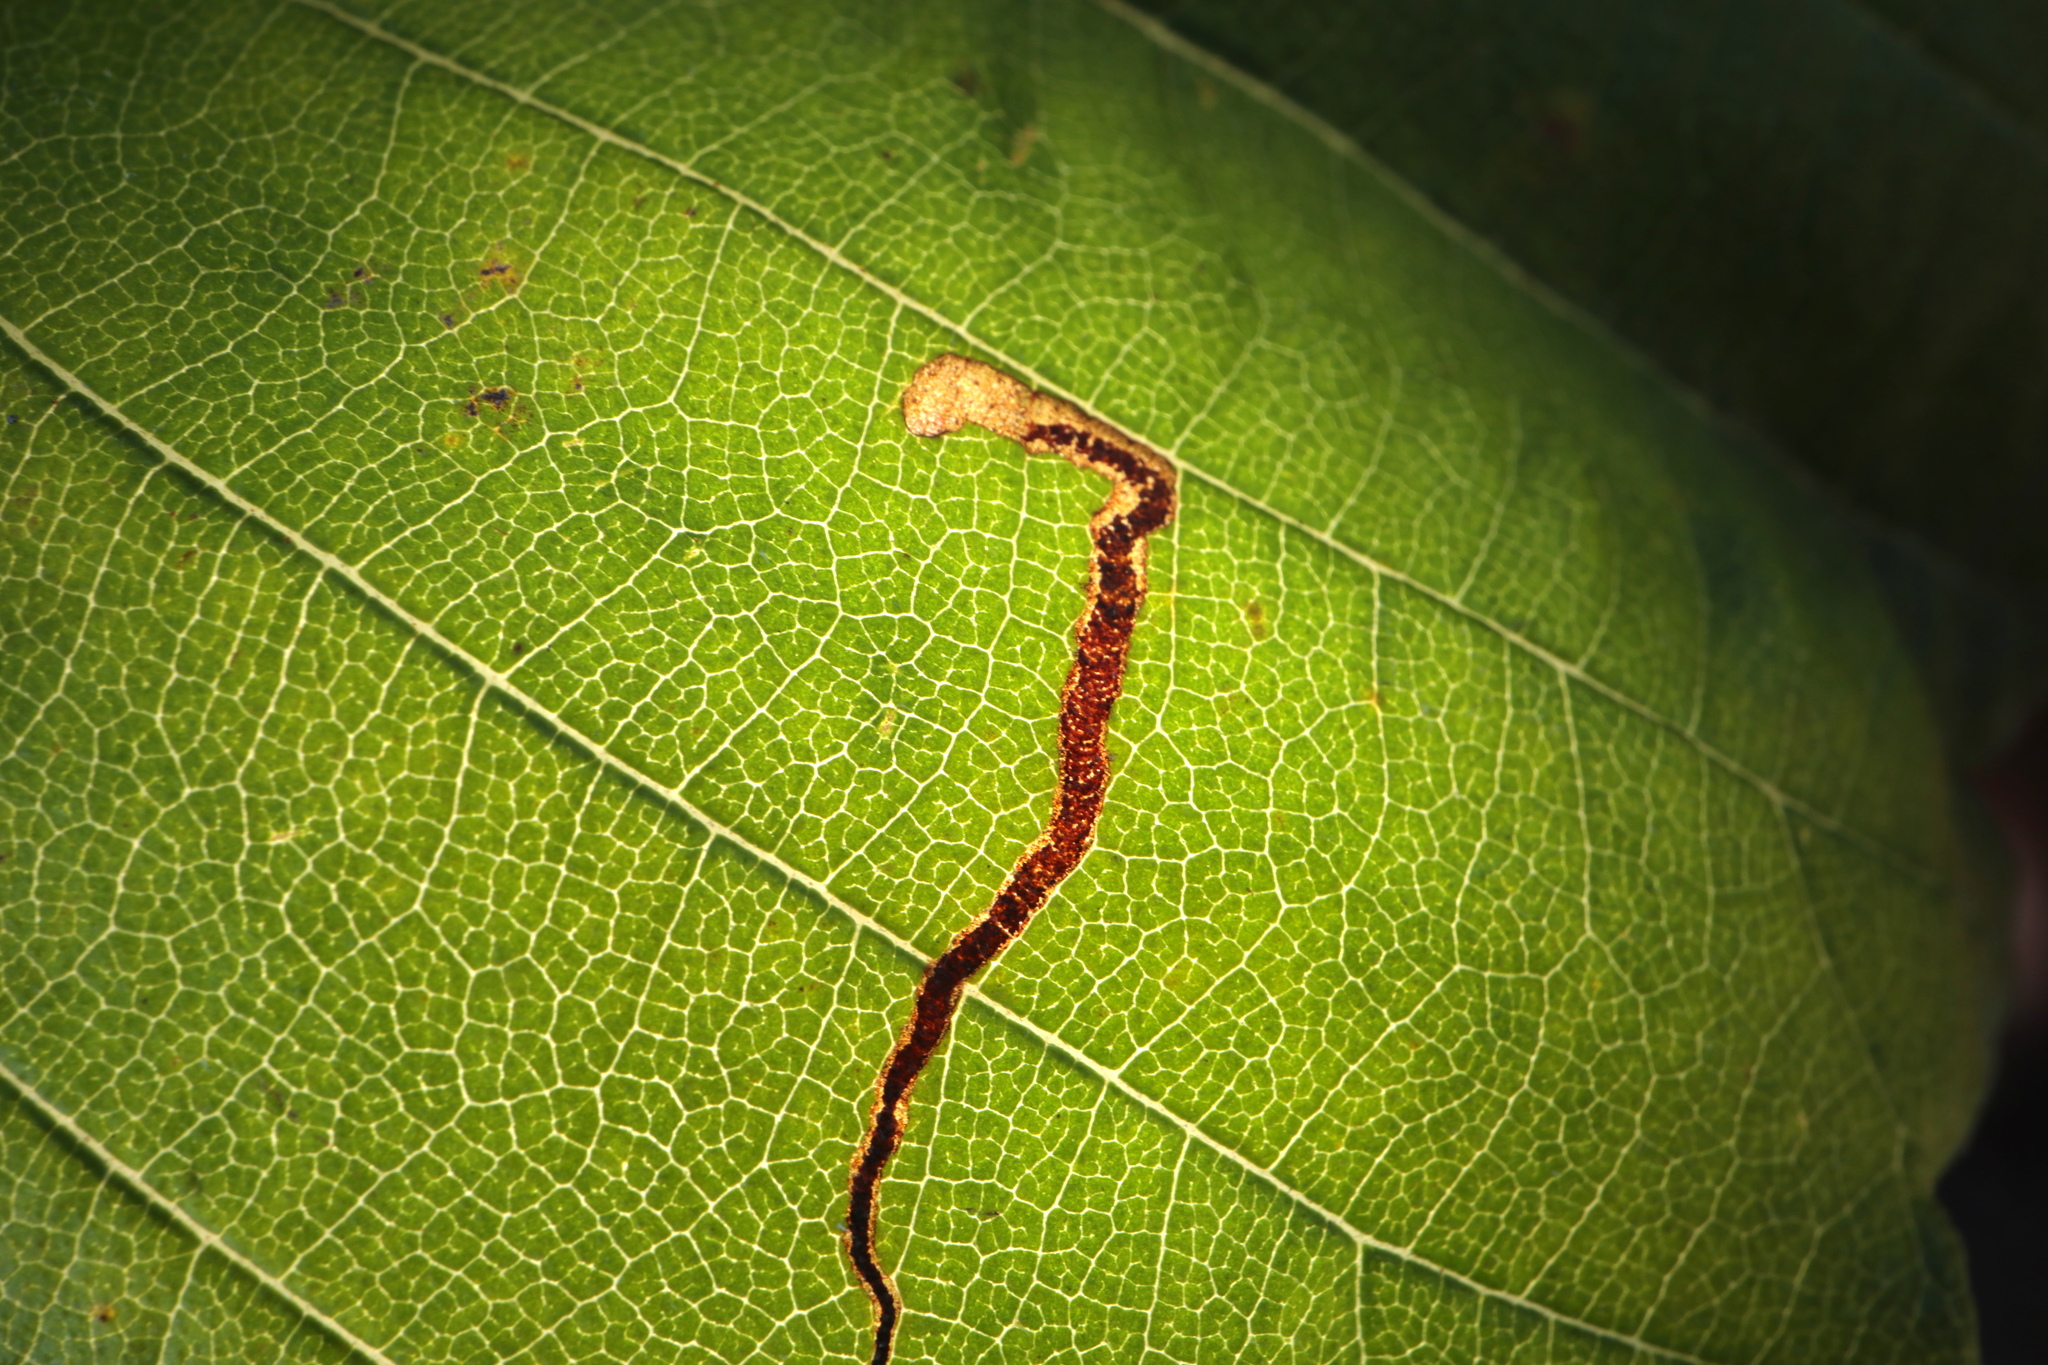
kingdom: Animalia
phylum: Arthropoda
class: Insecta
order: Lepidoptera
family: Nepticulidae
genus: Stigmella
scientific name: Stigmella apicialbella
